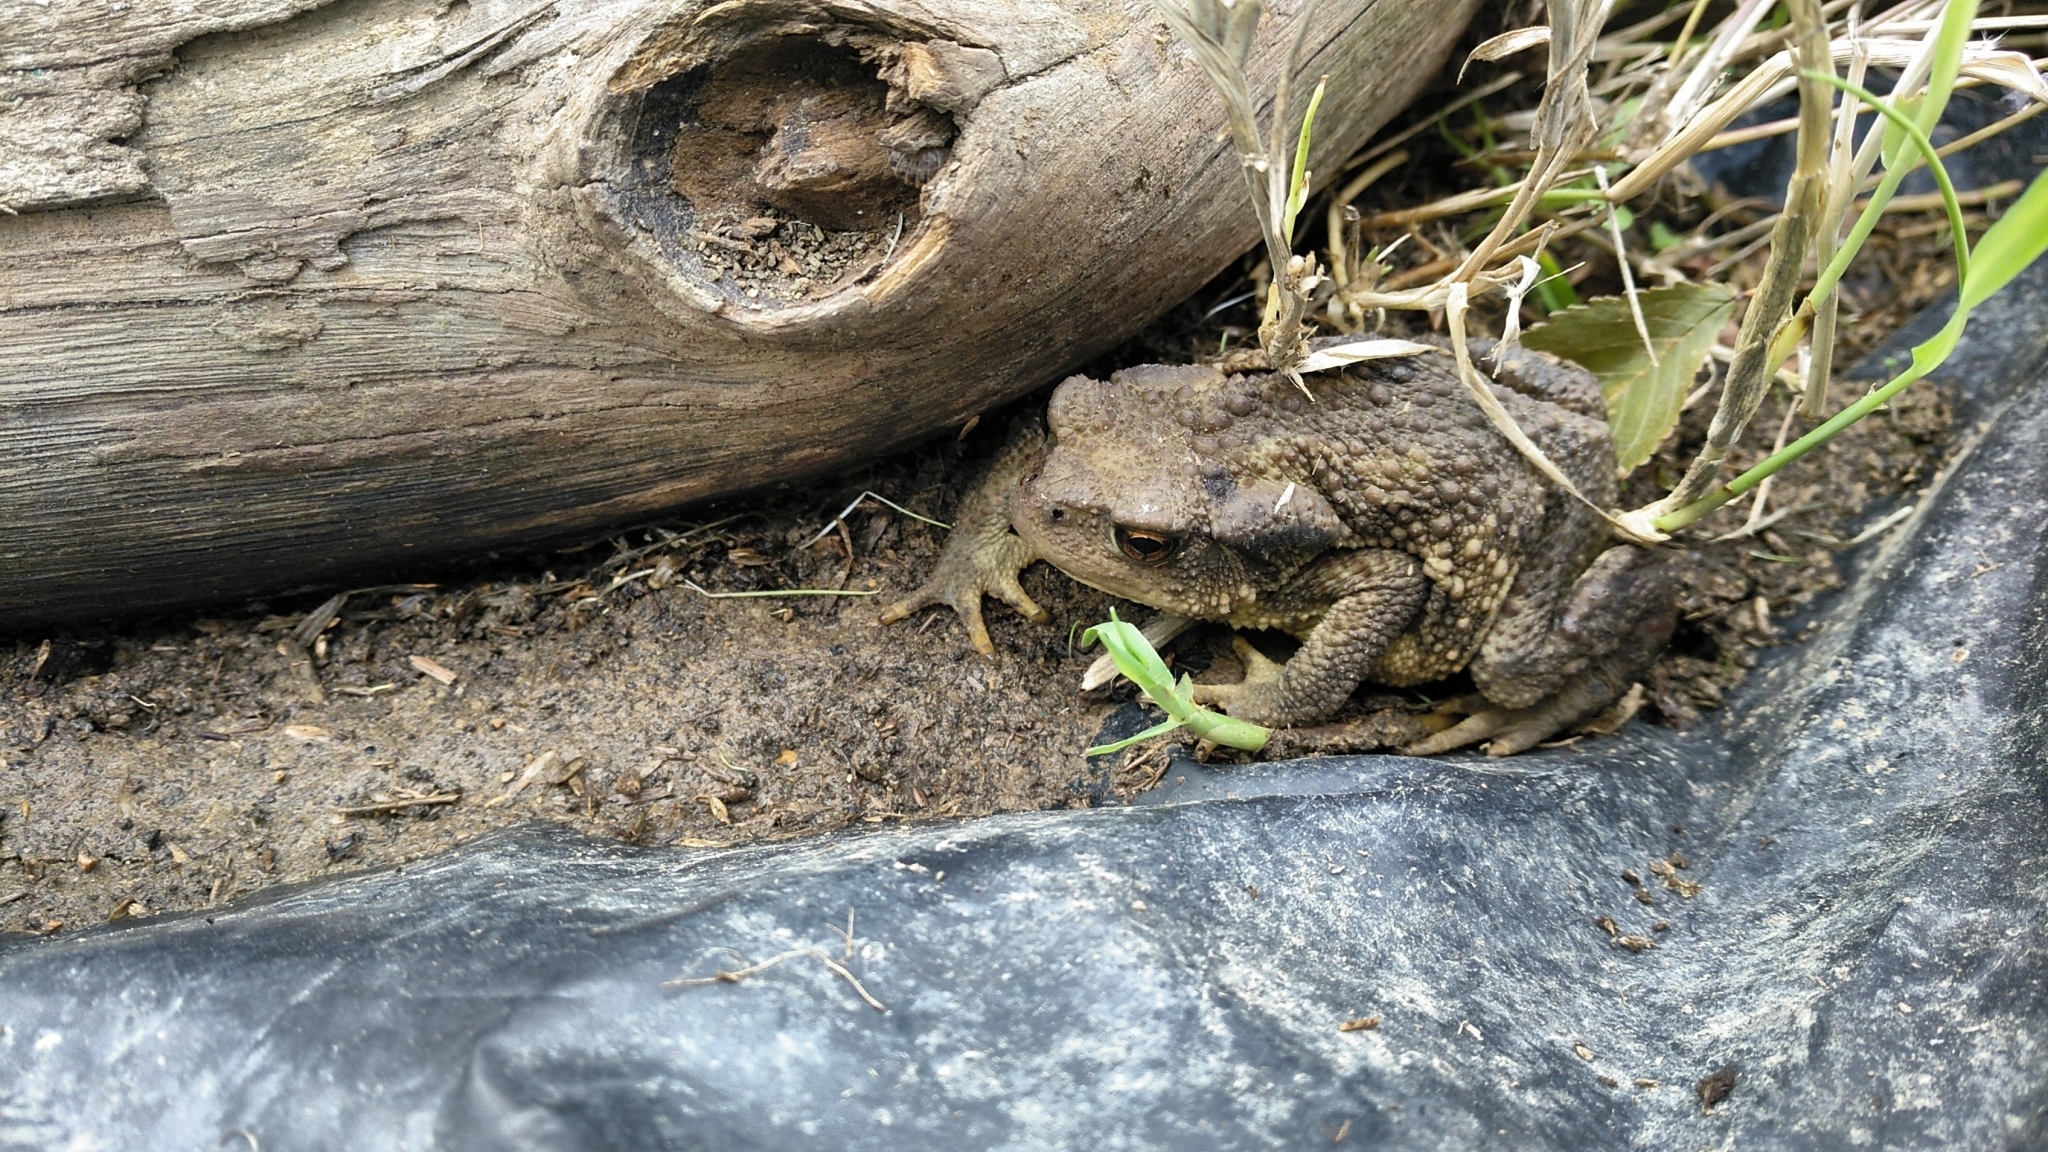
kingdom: Animalia
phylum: Chordata
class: Amphibia
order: Anura
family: Bufonidae
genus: Bufo
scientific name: Bufo spinosus
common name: Western common toad
